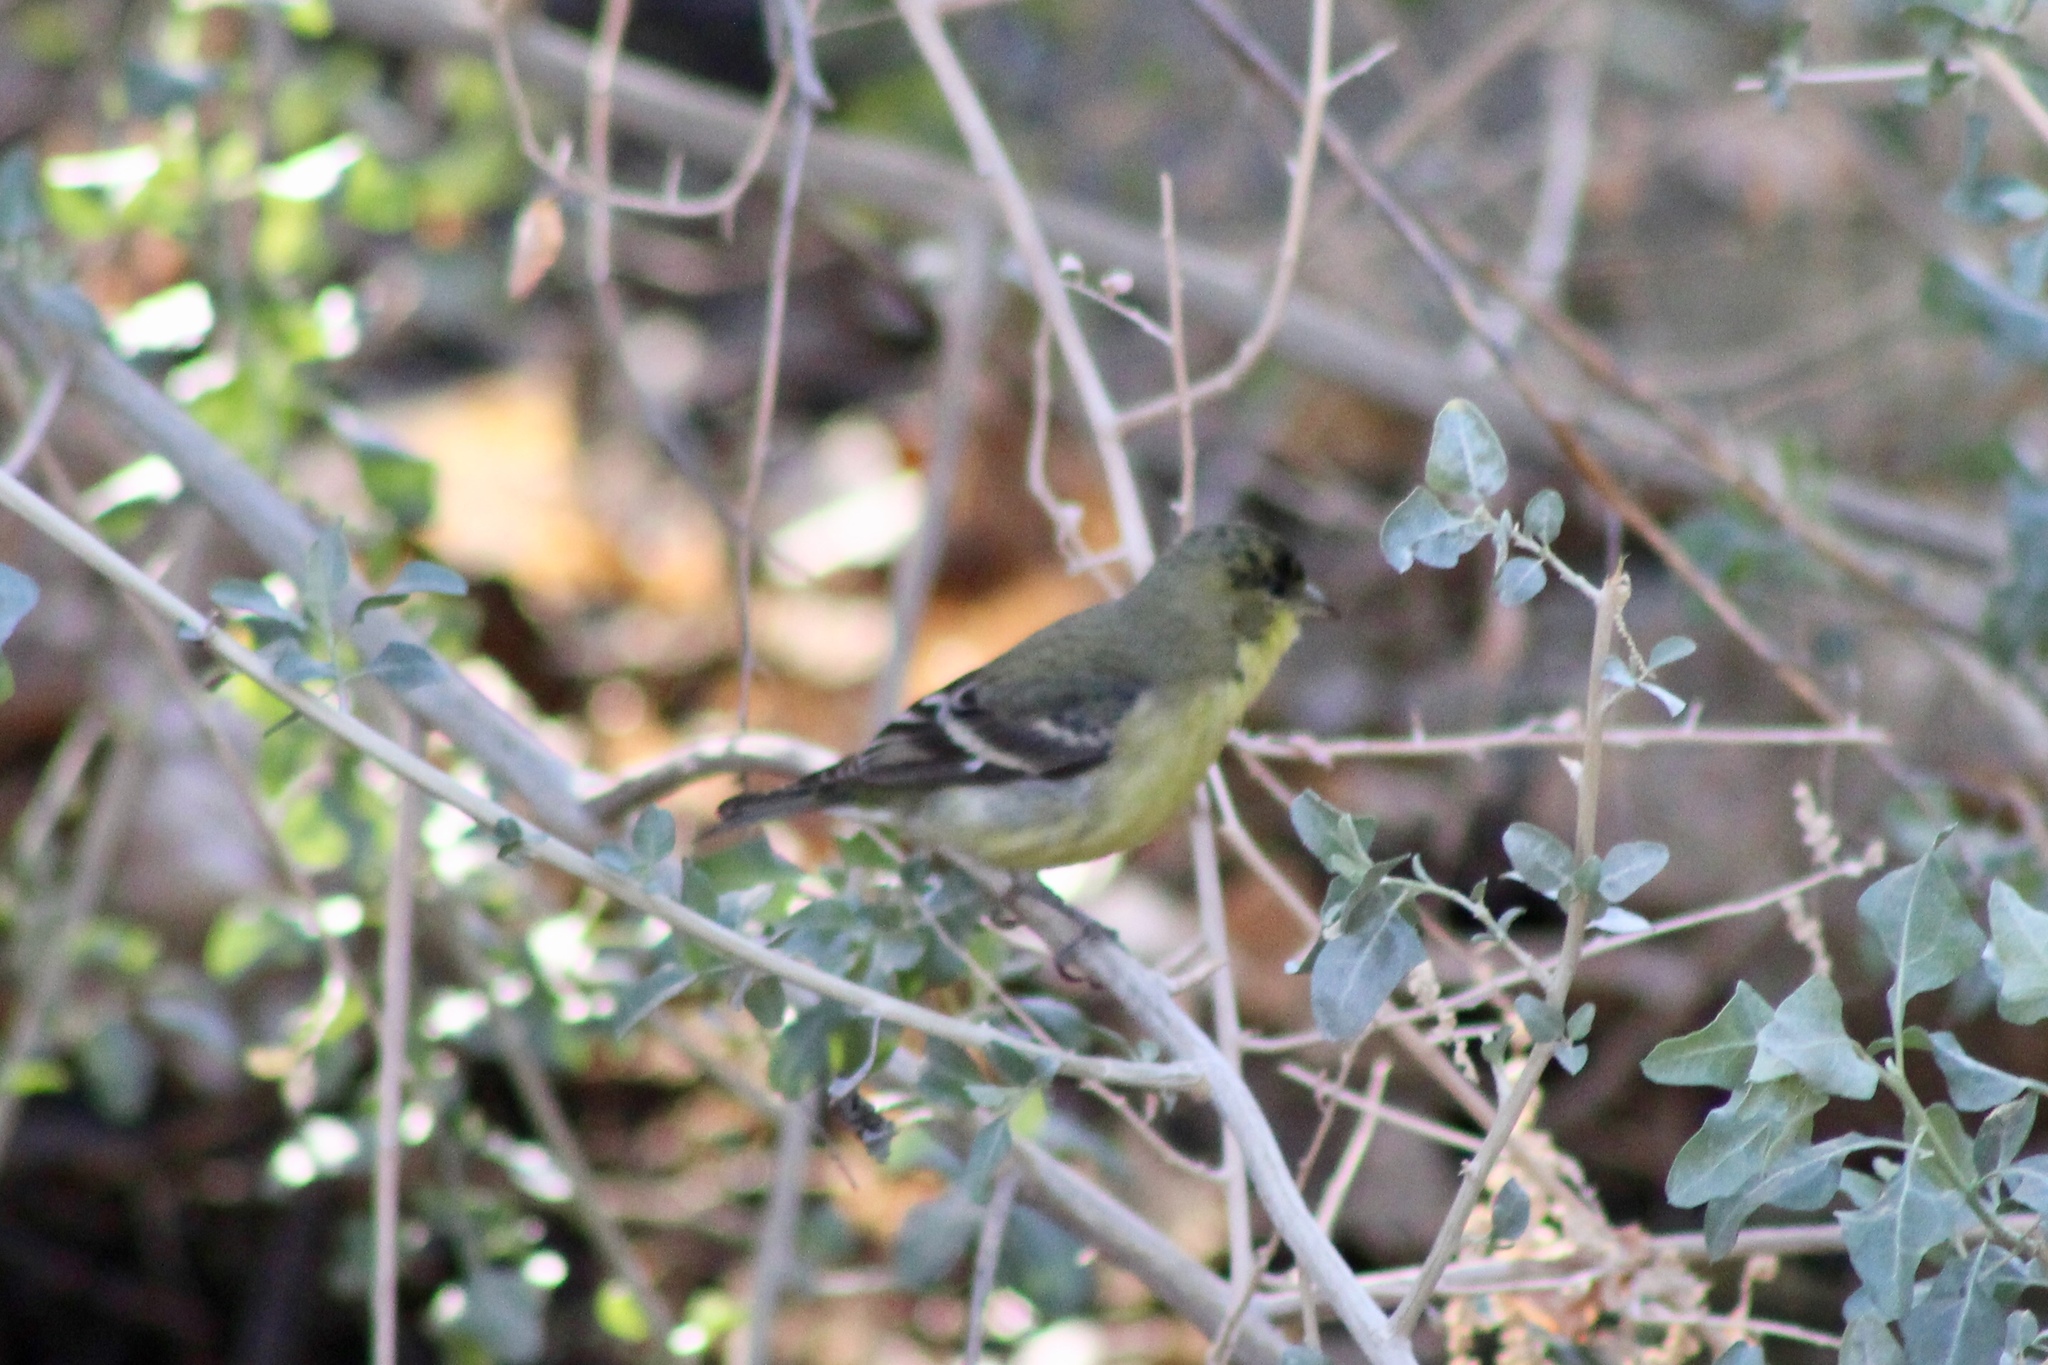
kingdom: Animalia
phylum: Chordata
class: Aves
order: Passeriformes
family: Fringillidae
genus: Spinus
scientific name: Spinus psaltria
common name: Lesser goldfinch
